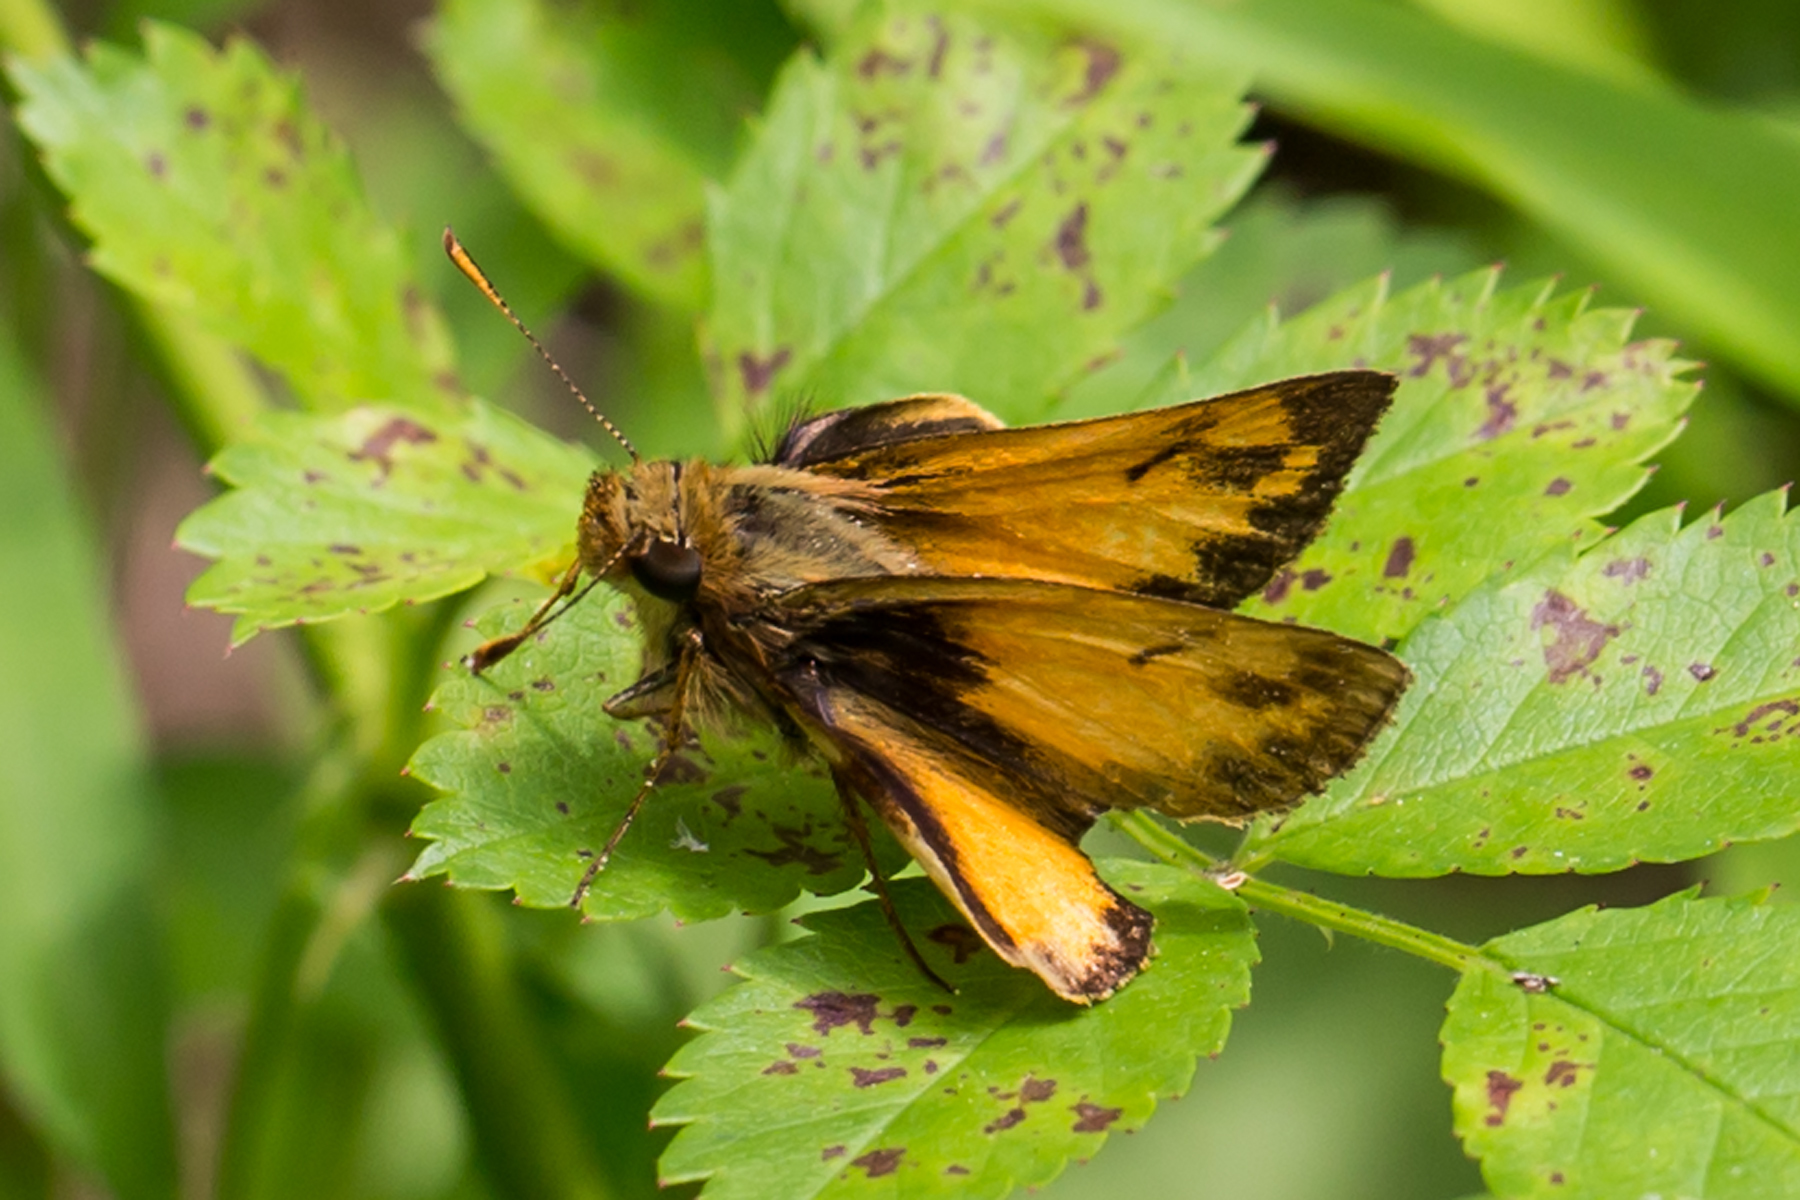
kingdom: Animalia
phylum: Arthropoda
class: Insecta
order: Lepidoptera
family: Hesperiidae
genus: Lon
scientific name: Lon zabulon
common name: Zabulon skipper
